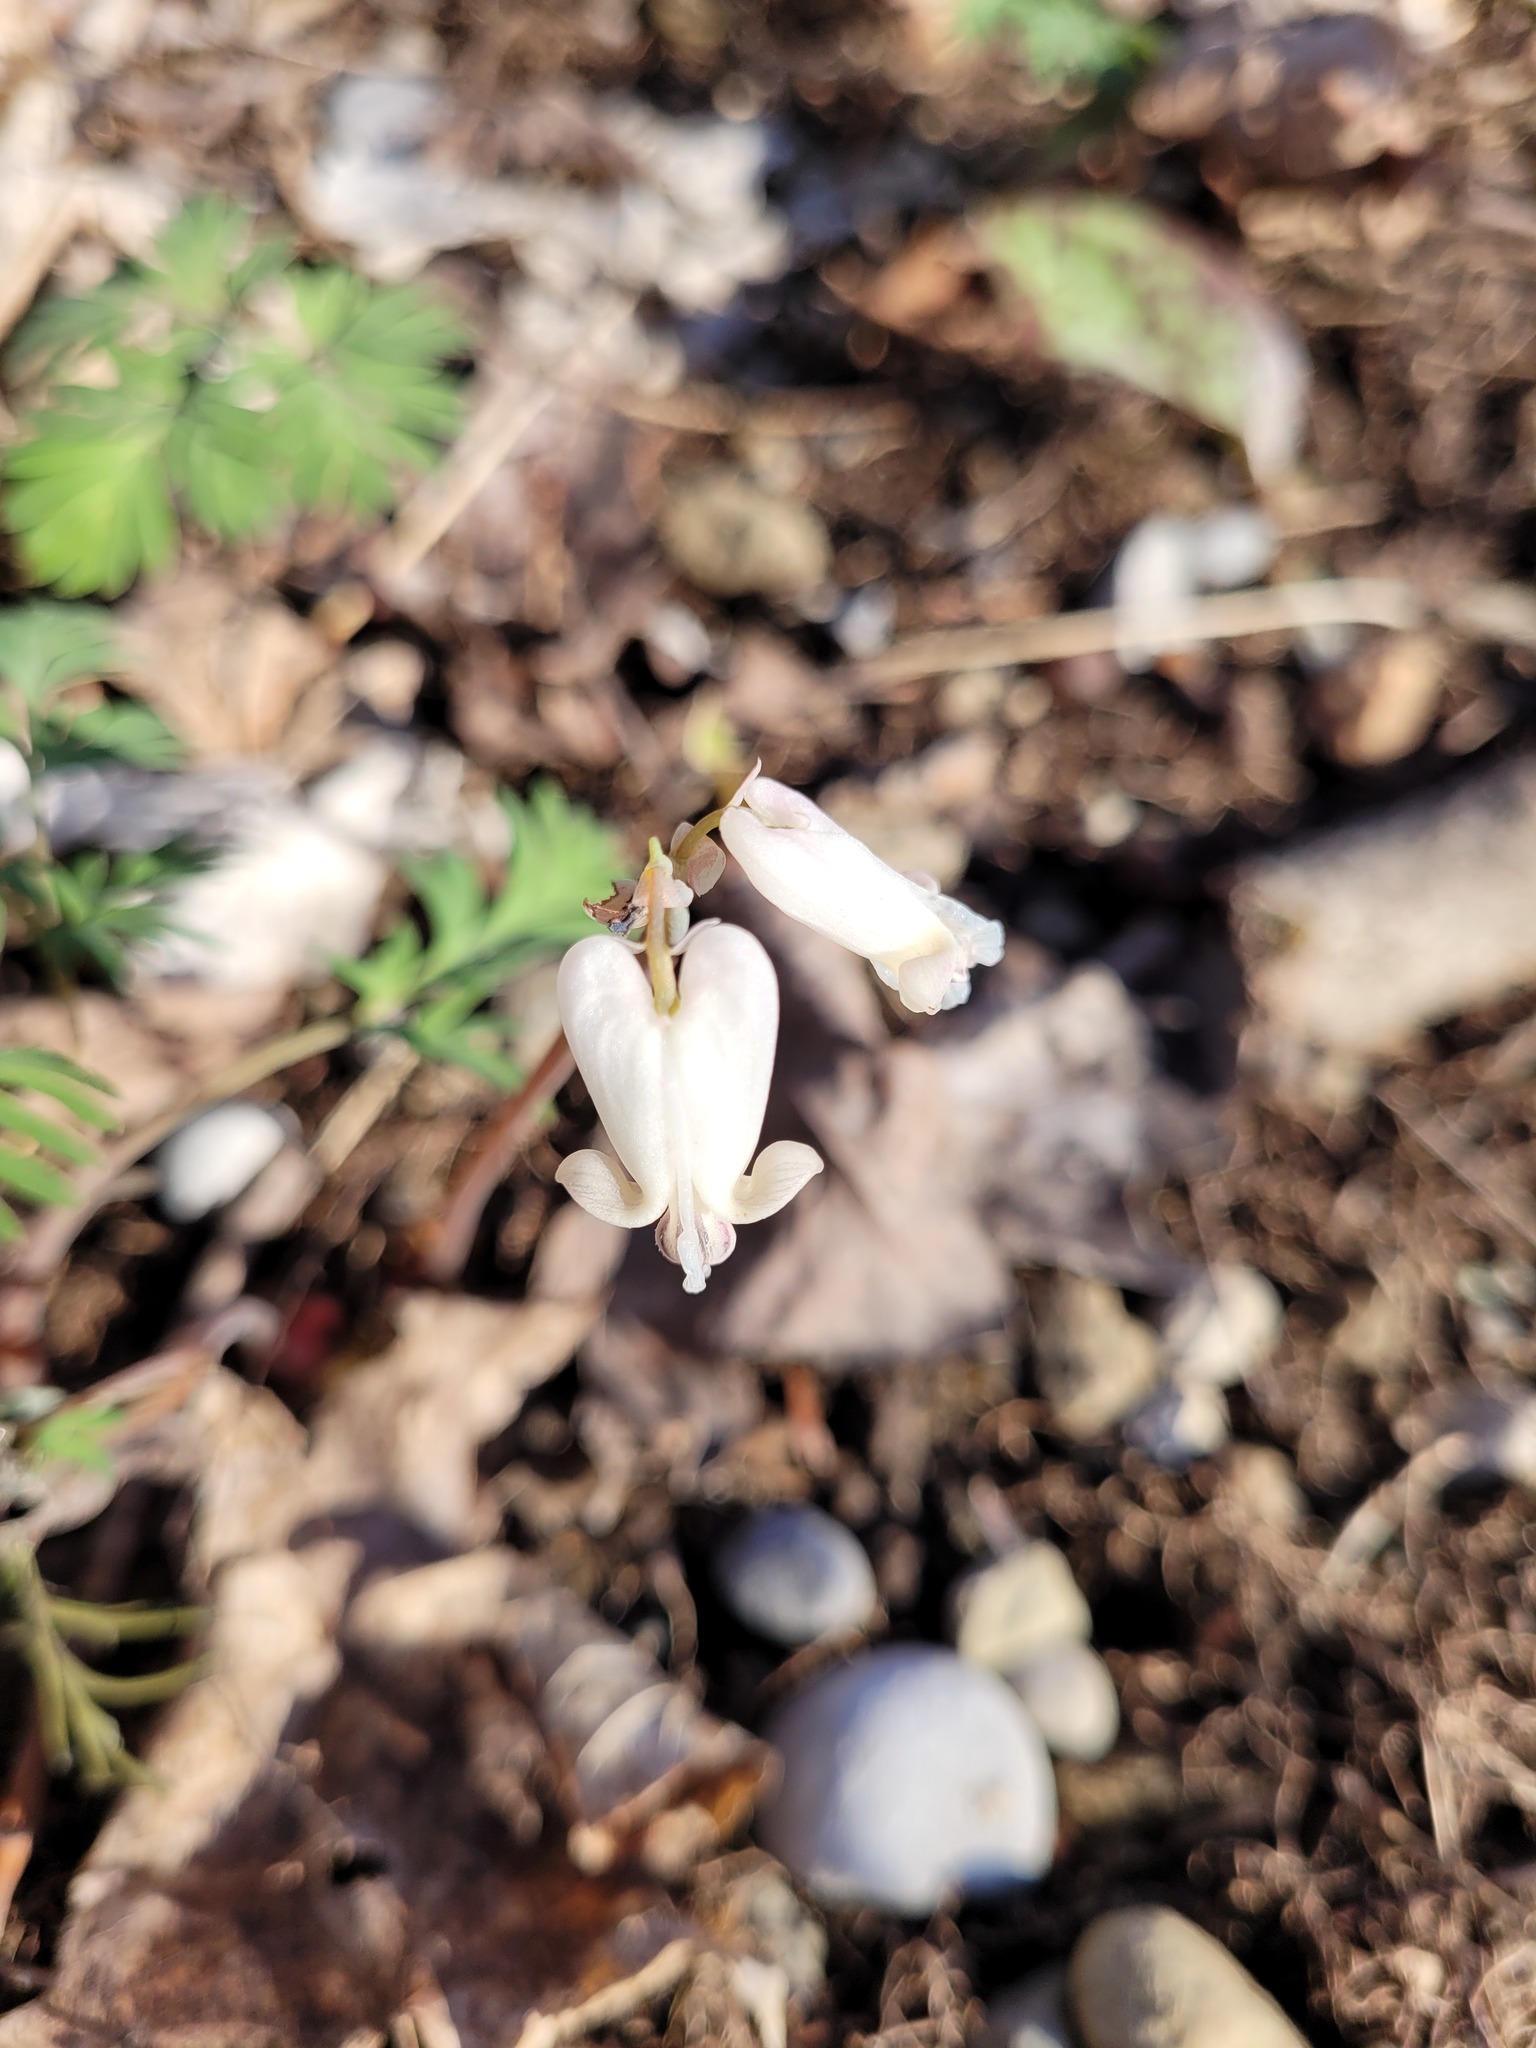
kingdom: Plantae
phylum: Tracheophyta
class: Magnoliopsida
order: Ranunculales
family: Papaveraceae
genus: Dicentra
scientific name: Dicentra canadensis
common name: Squirrel-corn
